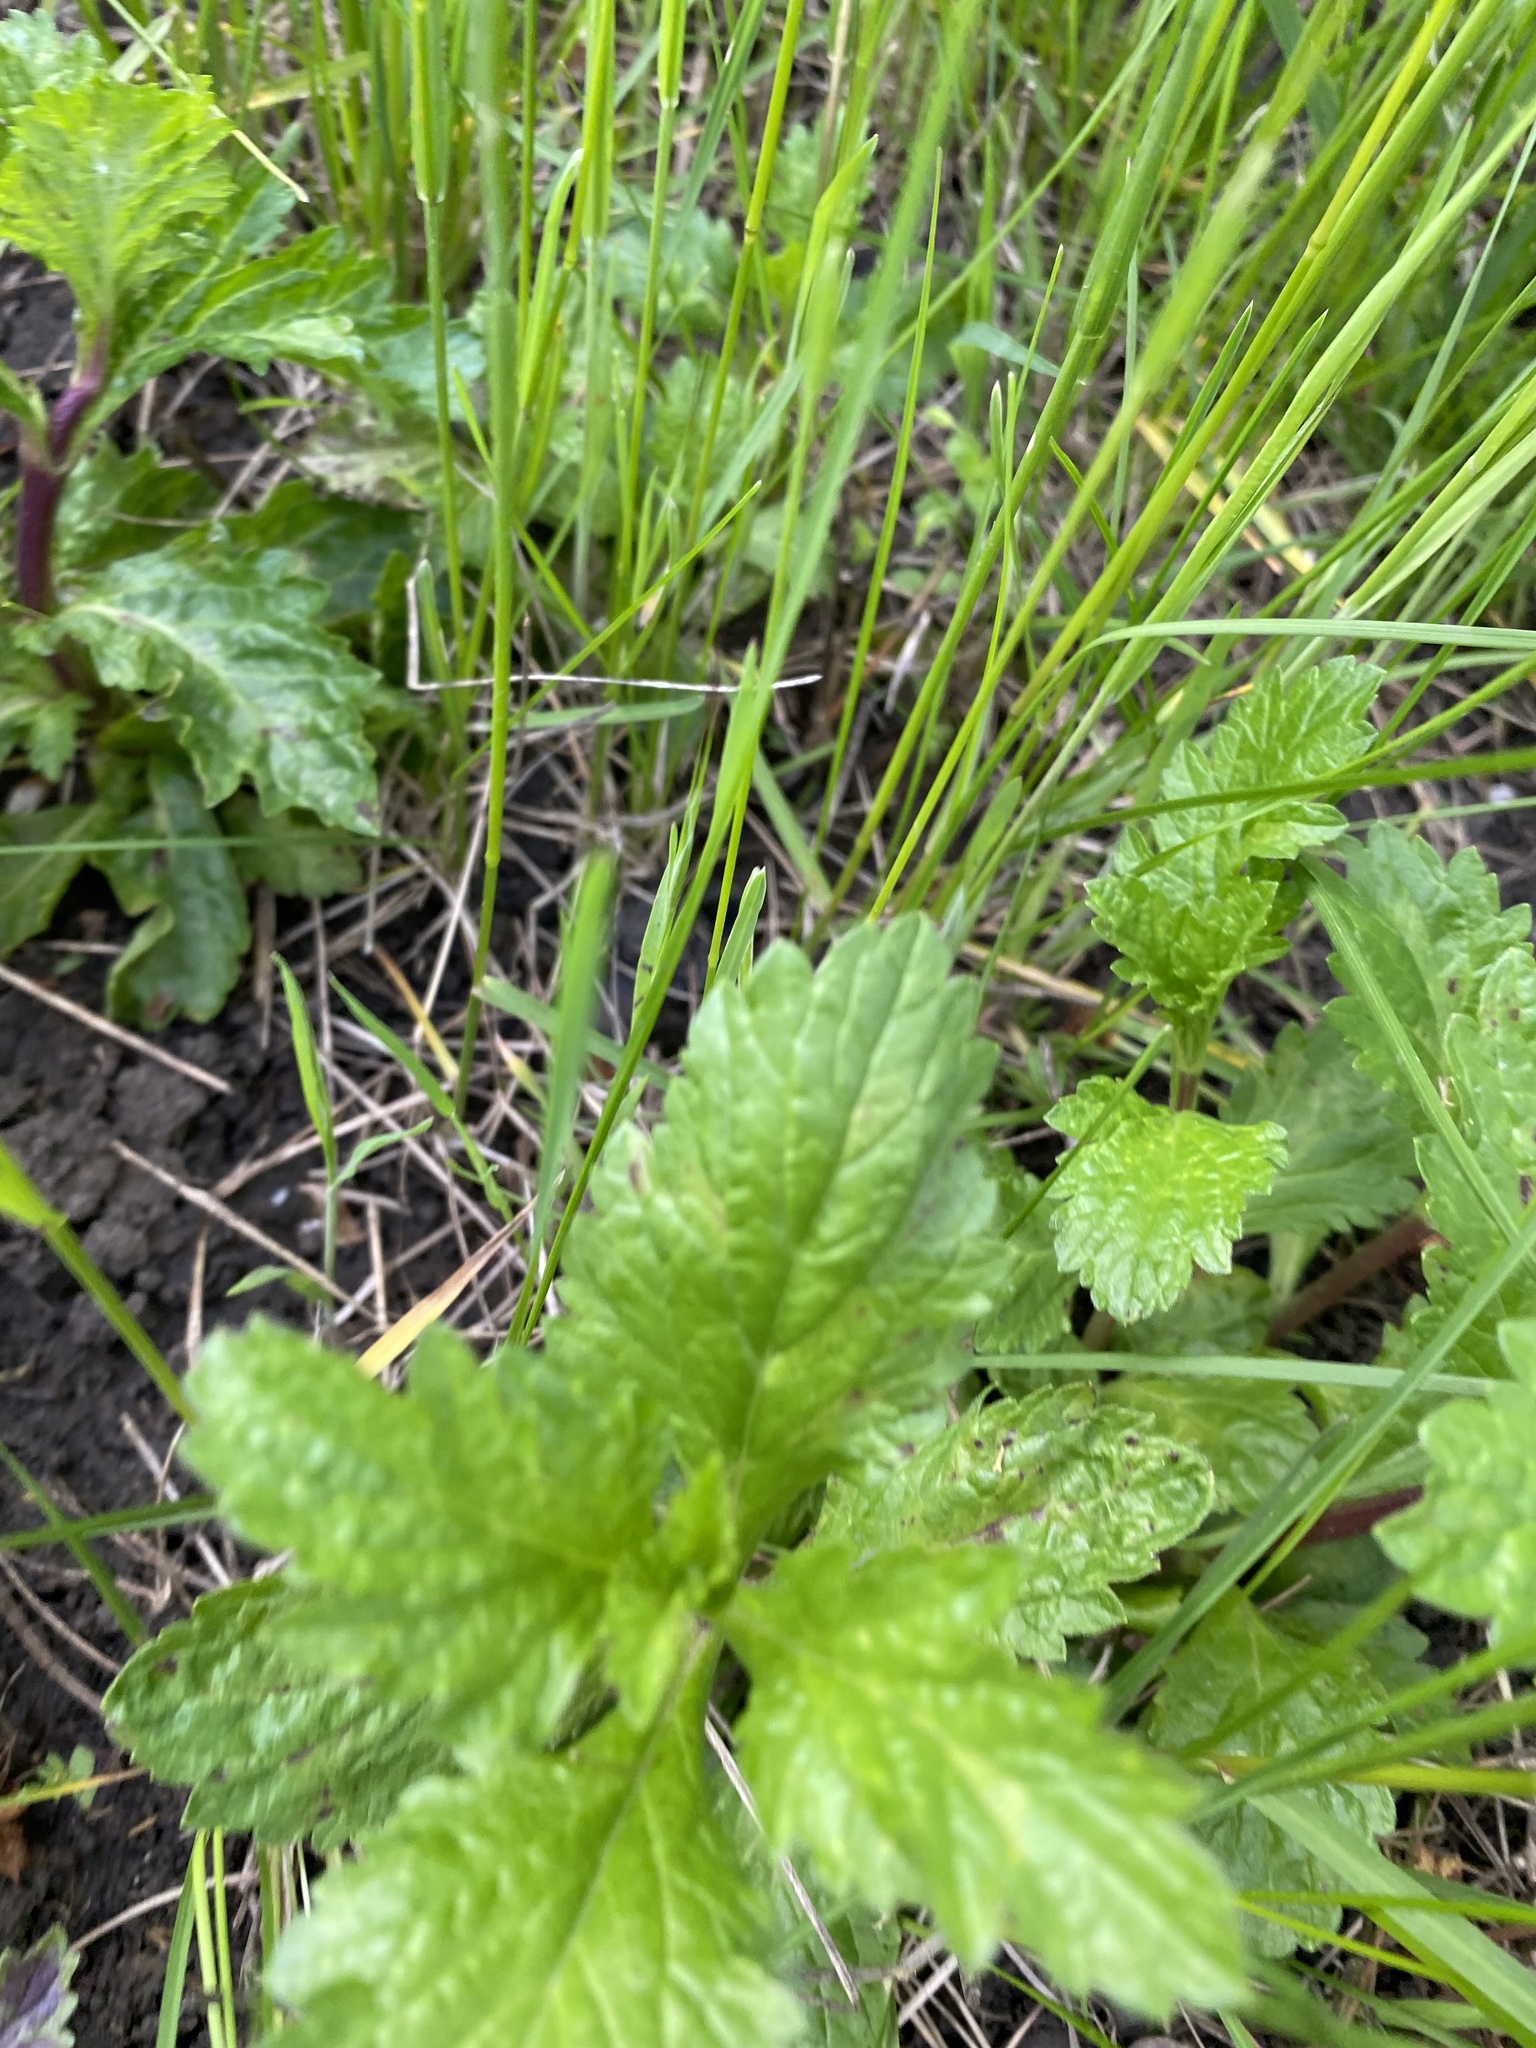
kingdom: Plantae
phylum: Tracheophyta
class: Magnoliopsida
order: Lamiales
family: Verbenaceae
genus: Verbena
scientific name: Verbena officinalis
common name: Vervain
